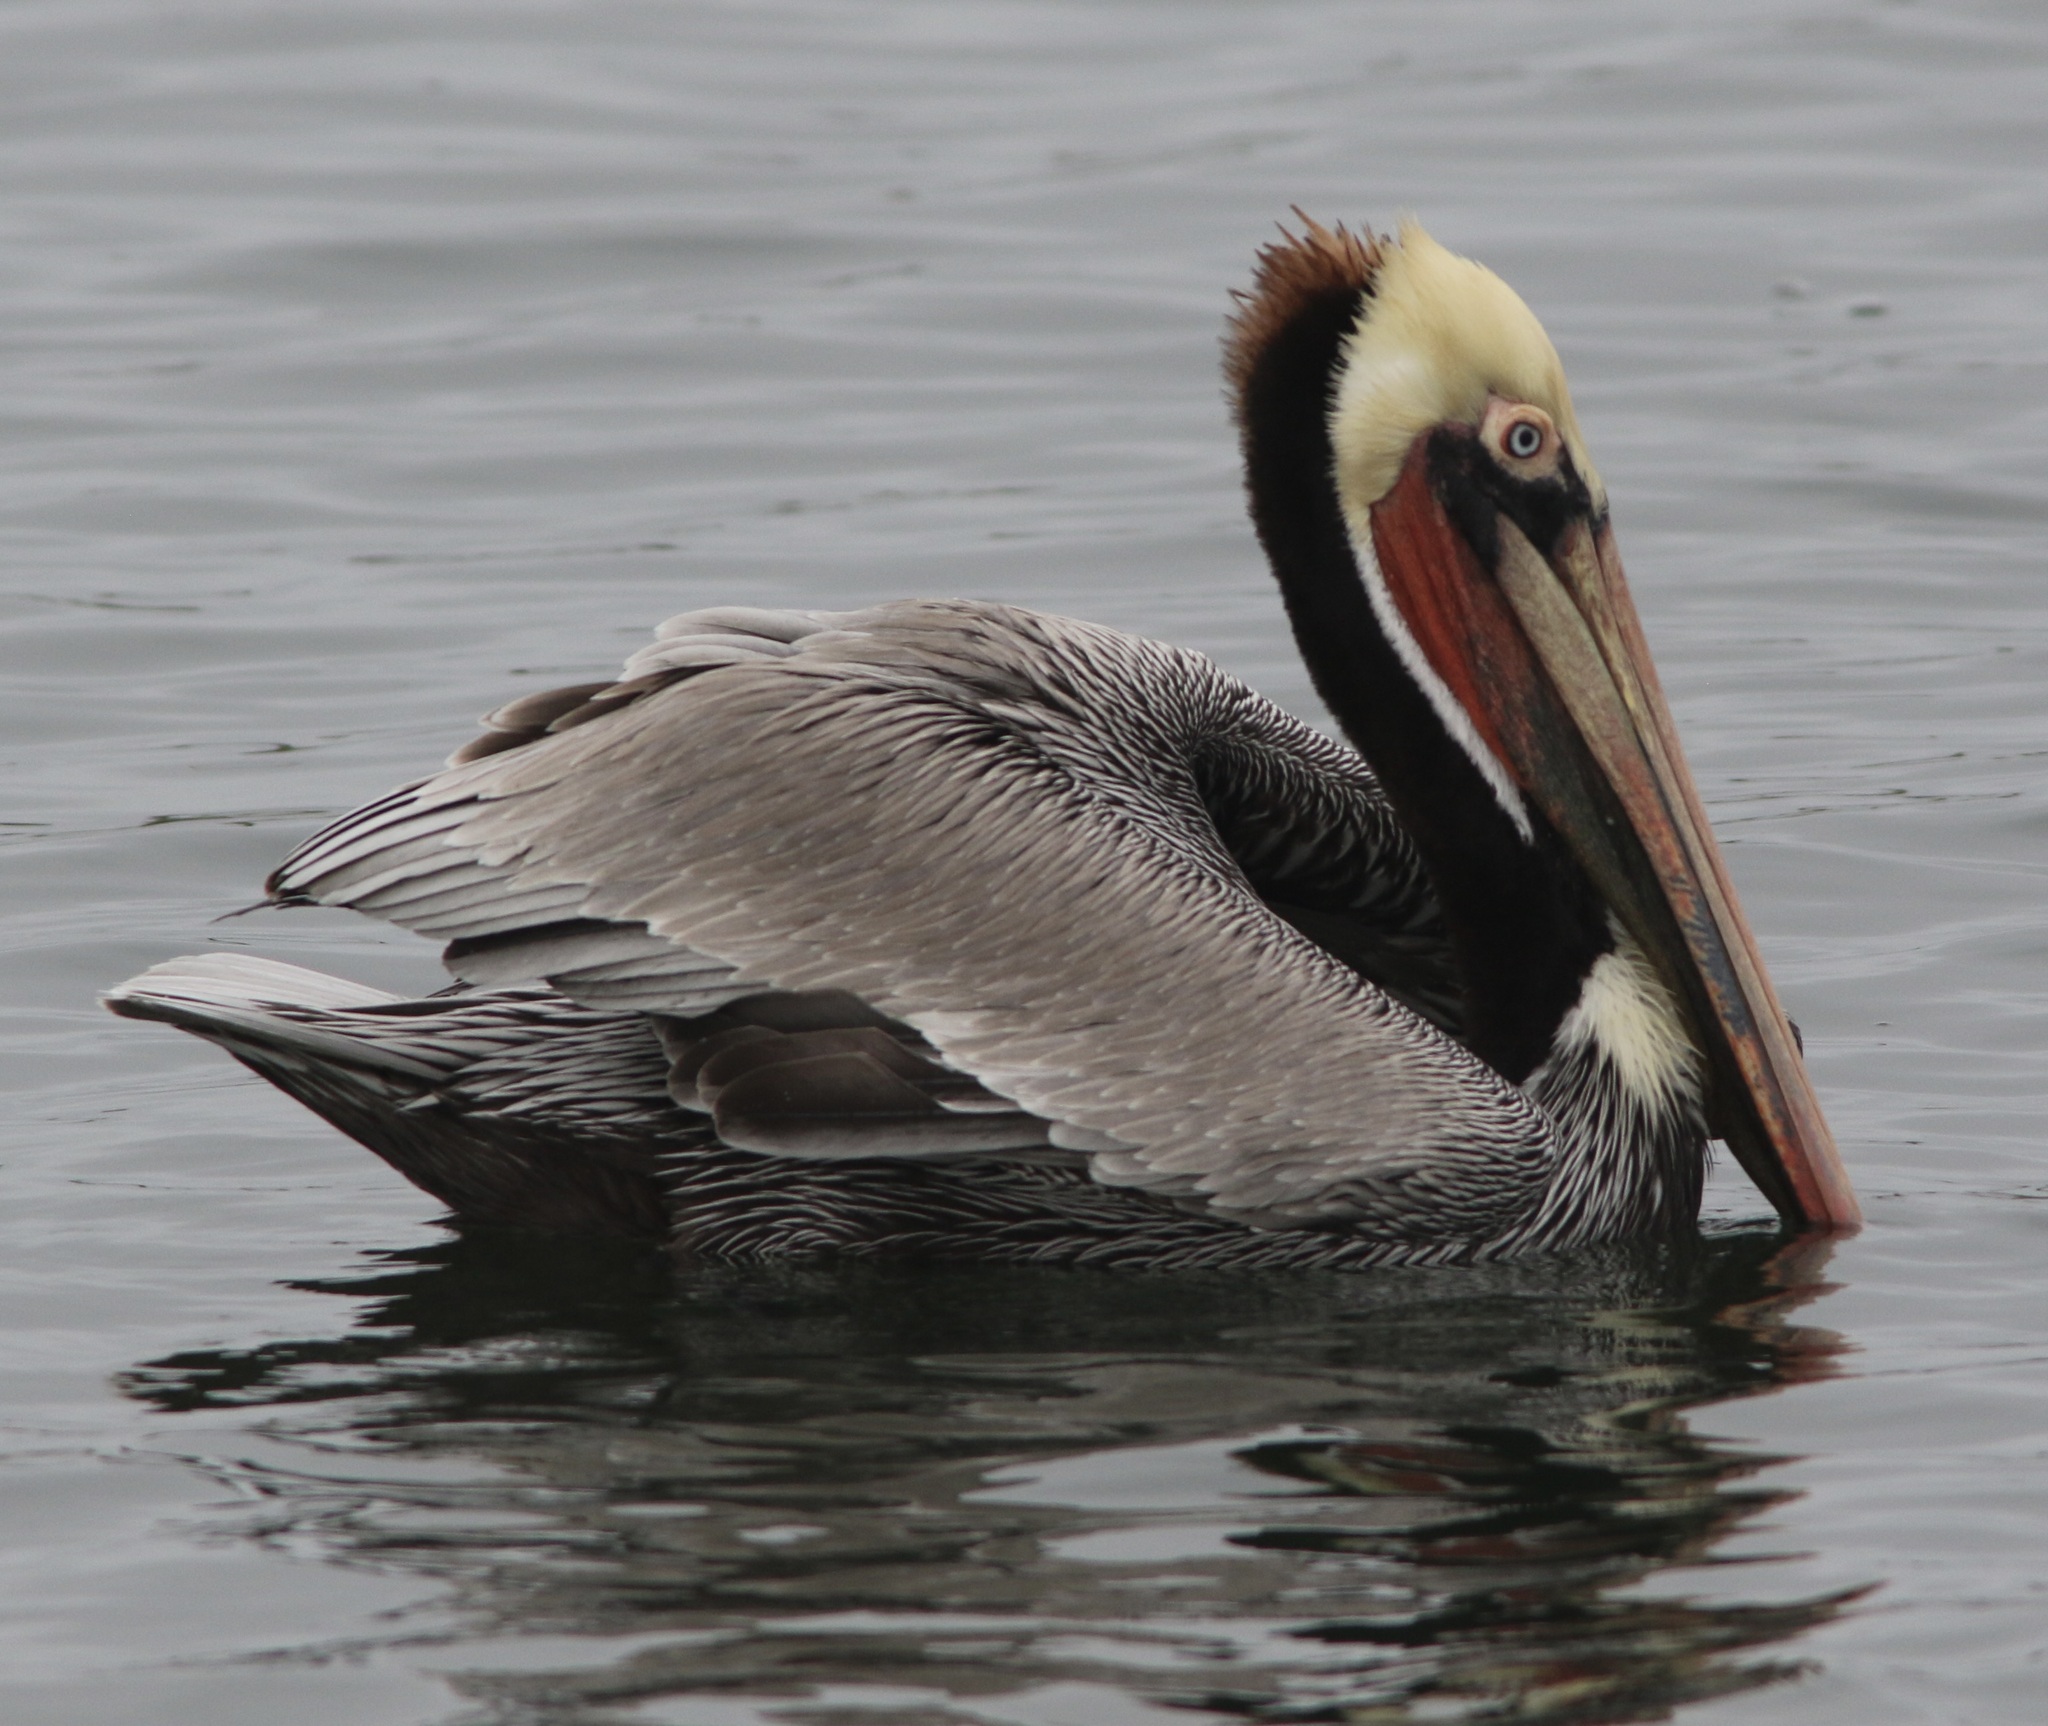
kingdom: Animalia
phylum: Chordata
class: Aves
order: Pelecaniformes
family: Pelecanidae
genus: Pelecanus
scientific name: Pelecanus occidentalis
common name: Brown pelican
